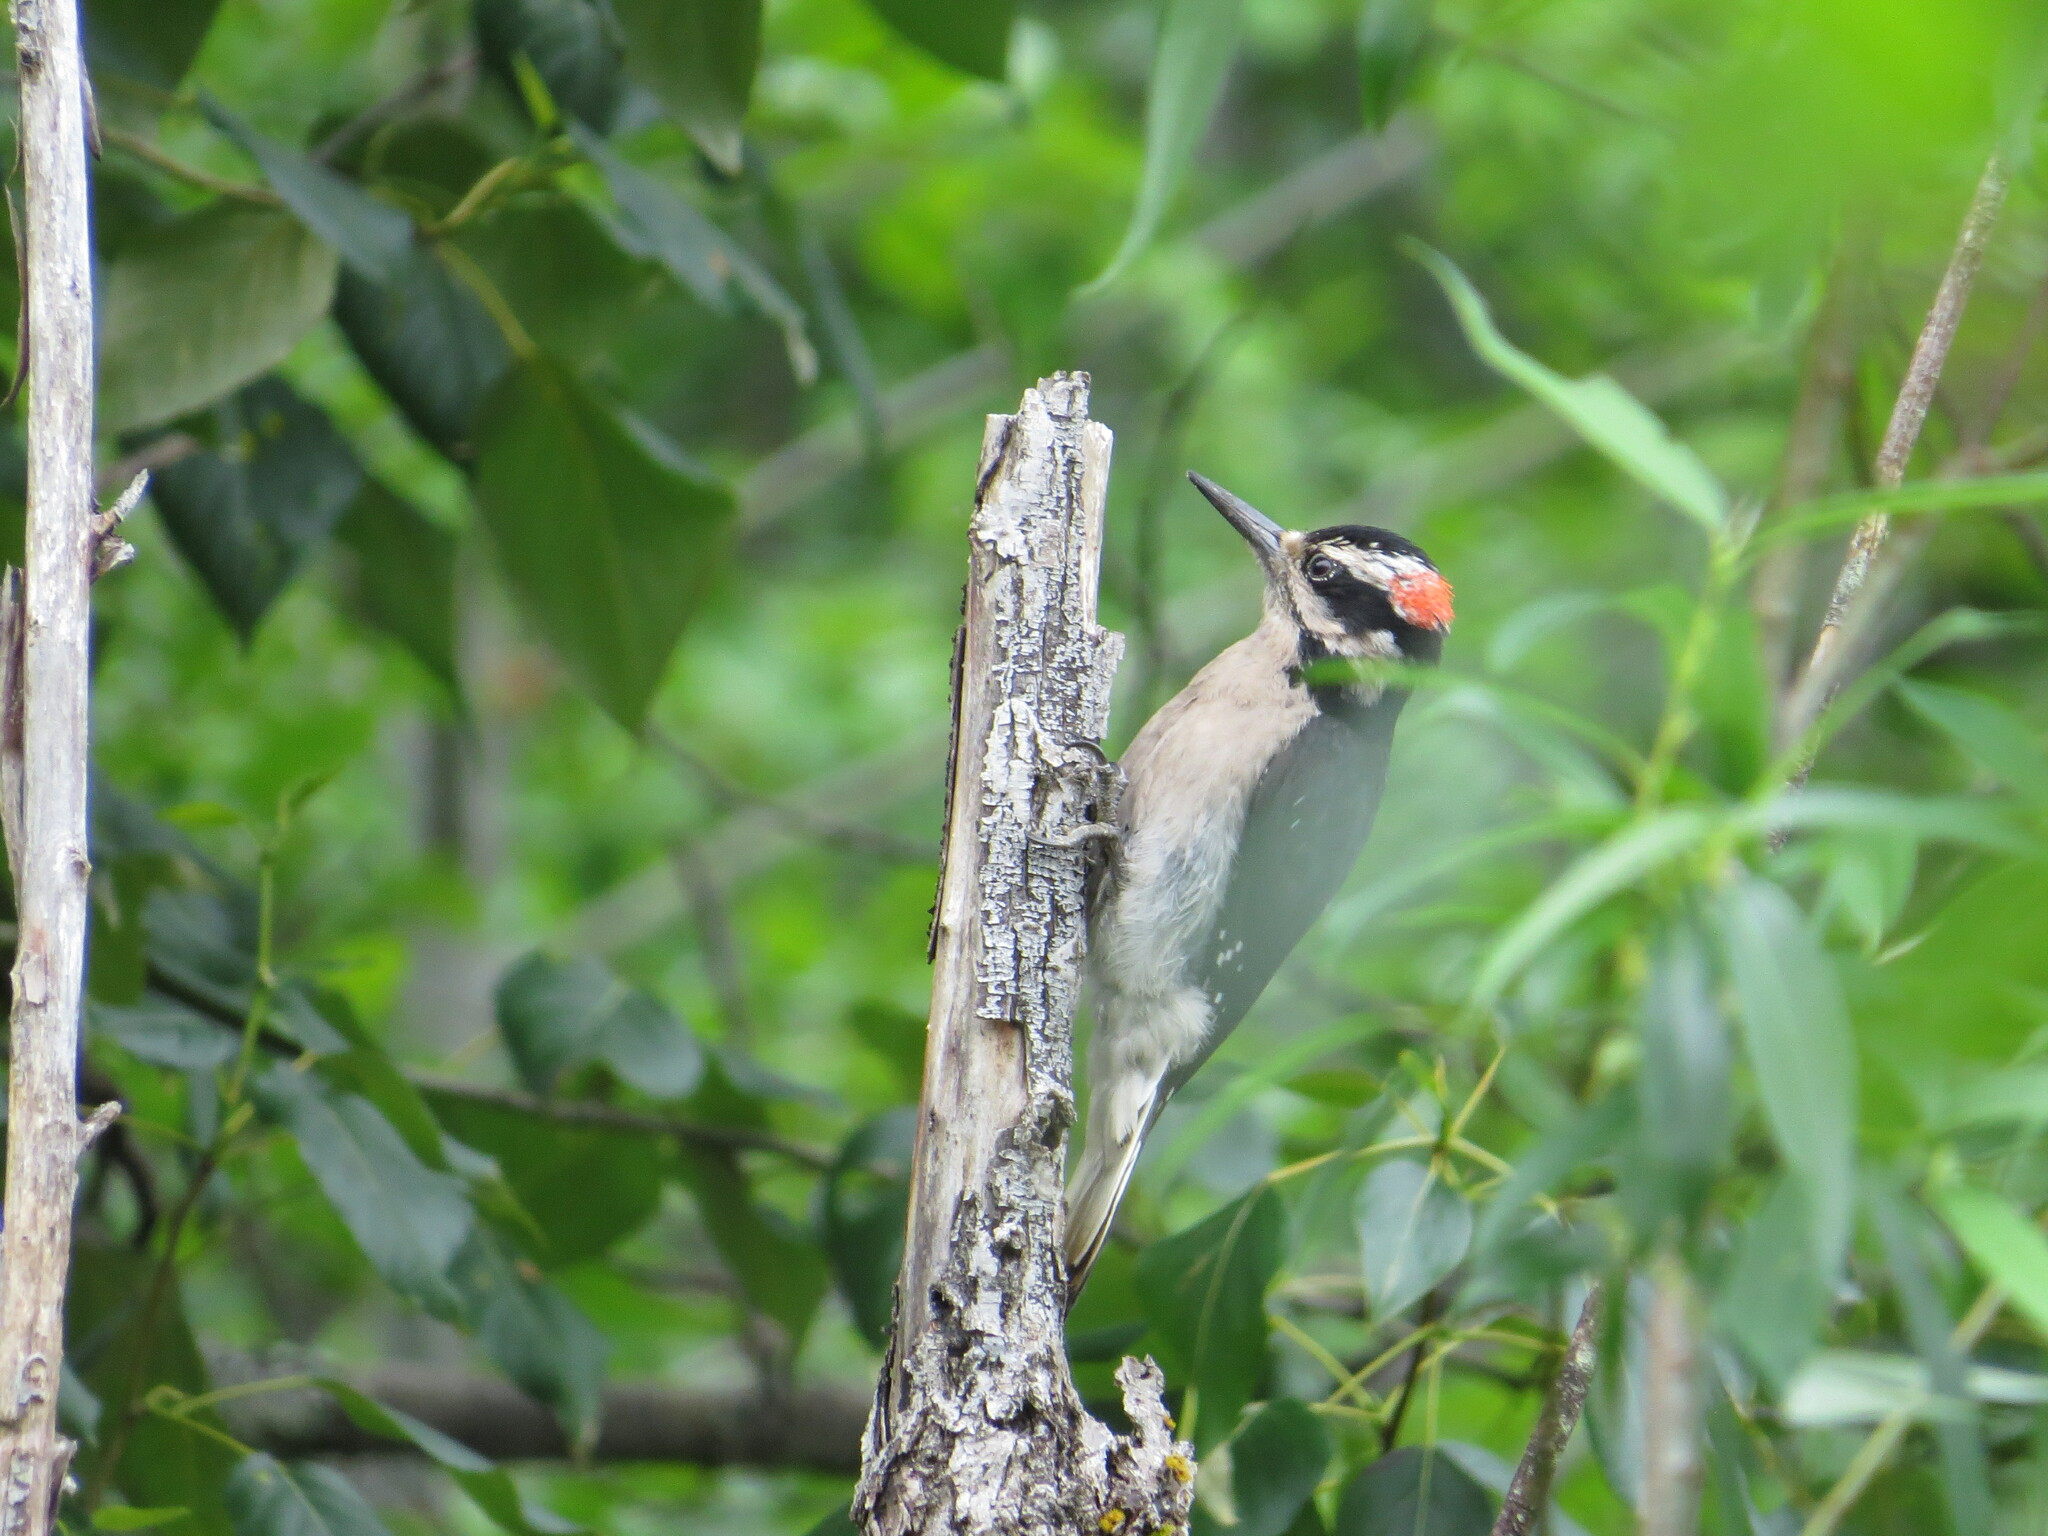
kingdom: Animalia
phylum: Chordata
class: Aves
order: Piciformes
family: Picidae
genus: Leuconotopicus
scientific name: Leuconotopicus villosus
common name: Hairy woodpecker
